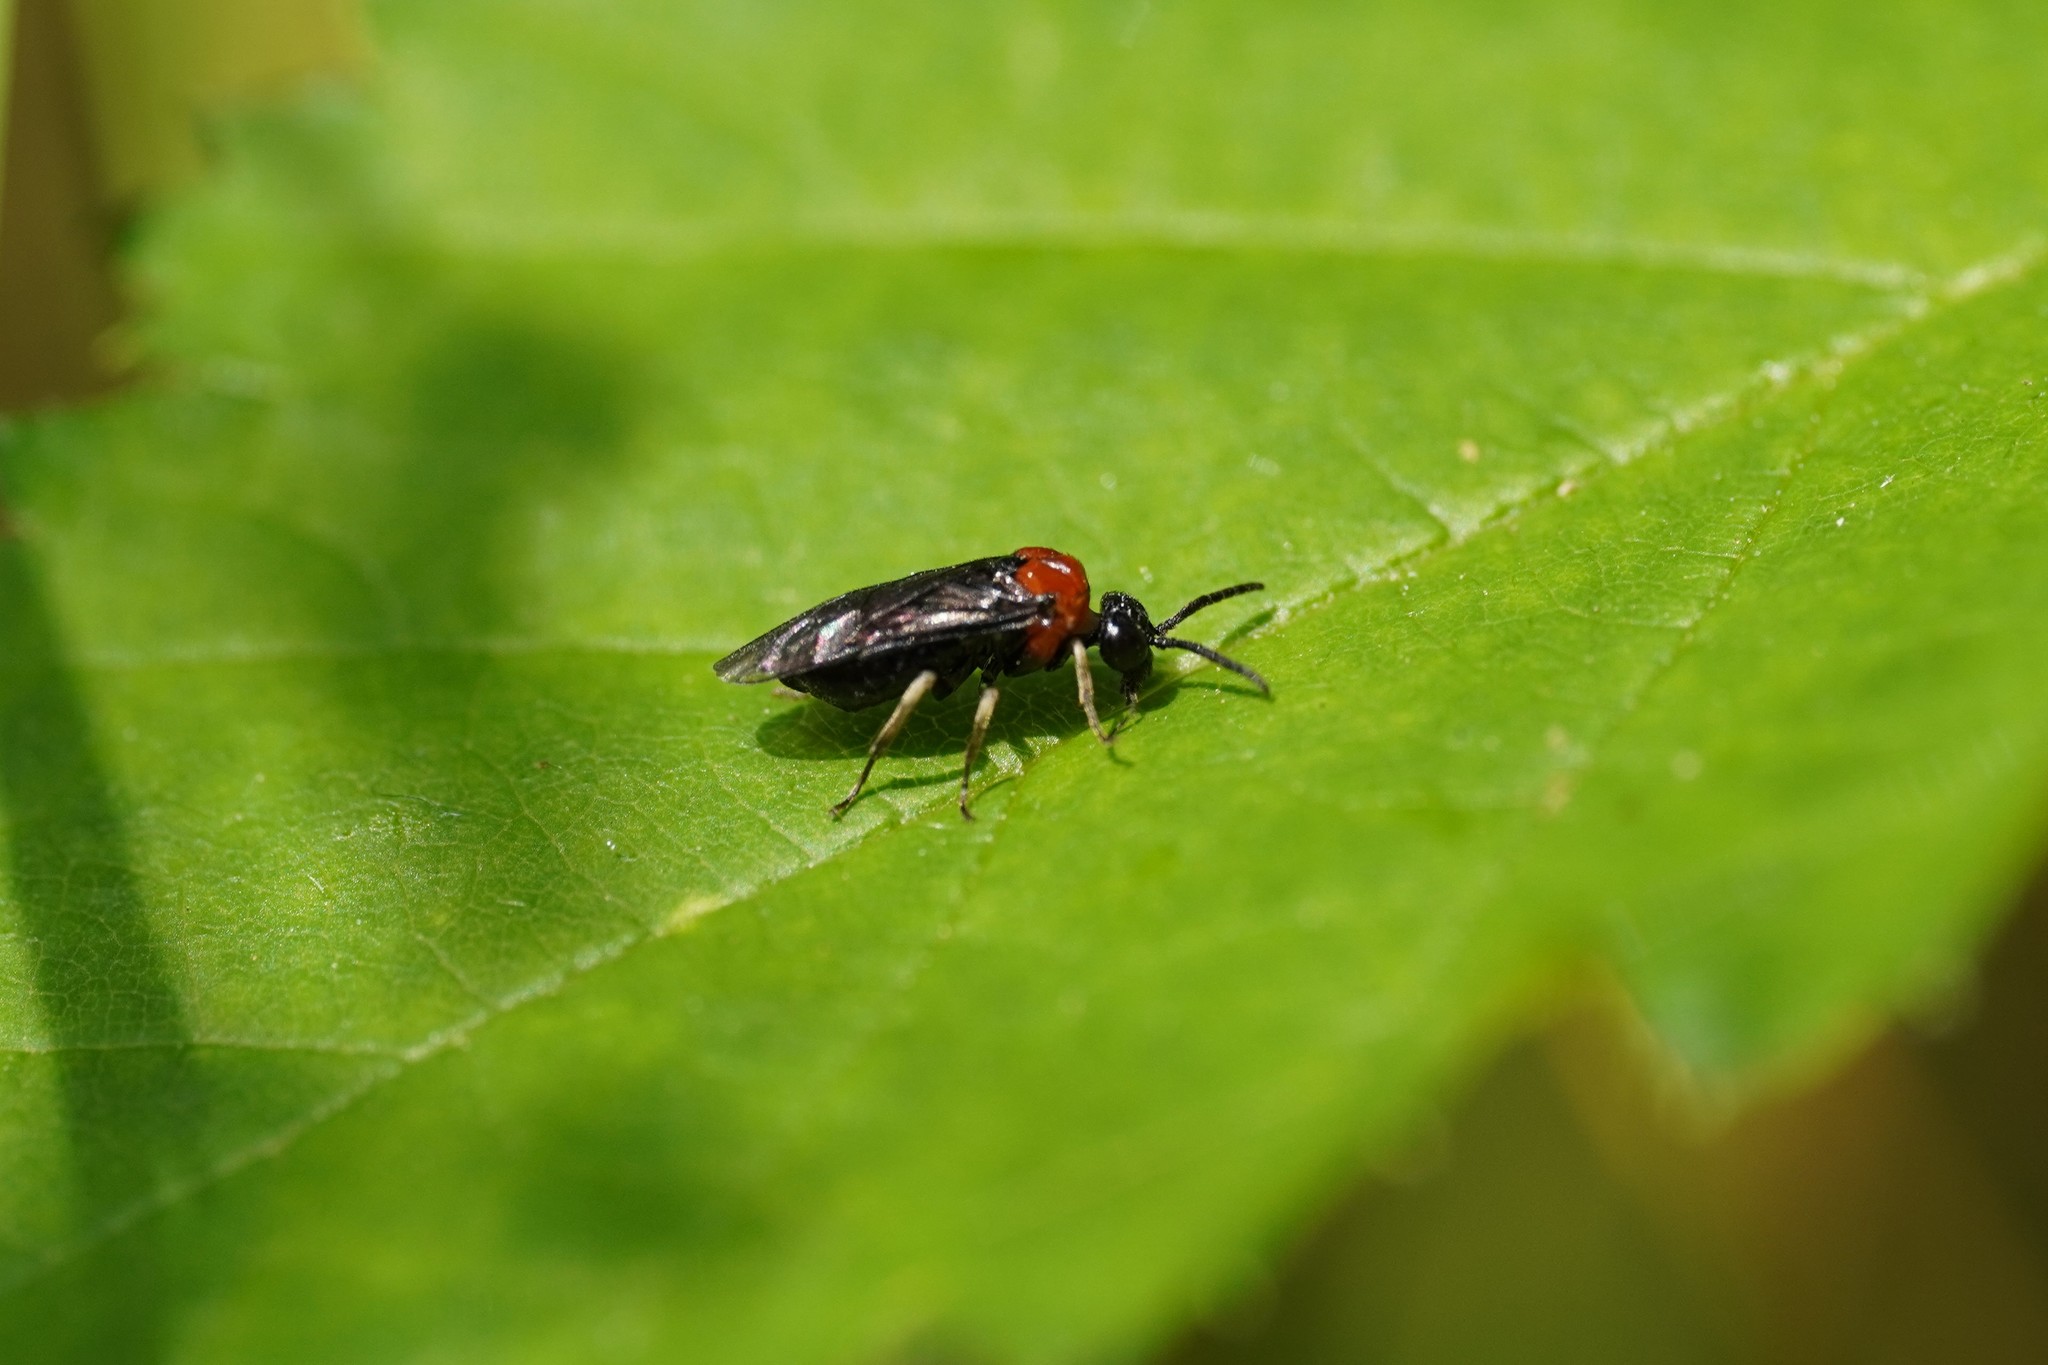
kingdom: Animalia
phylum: Arthropoda
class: Insecta
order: Hymenoptera
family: Tenthredinidae
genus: Eutomostethus
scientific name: Eutomostethus ephippium
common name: Tenthredid wasp
